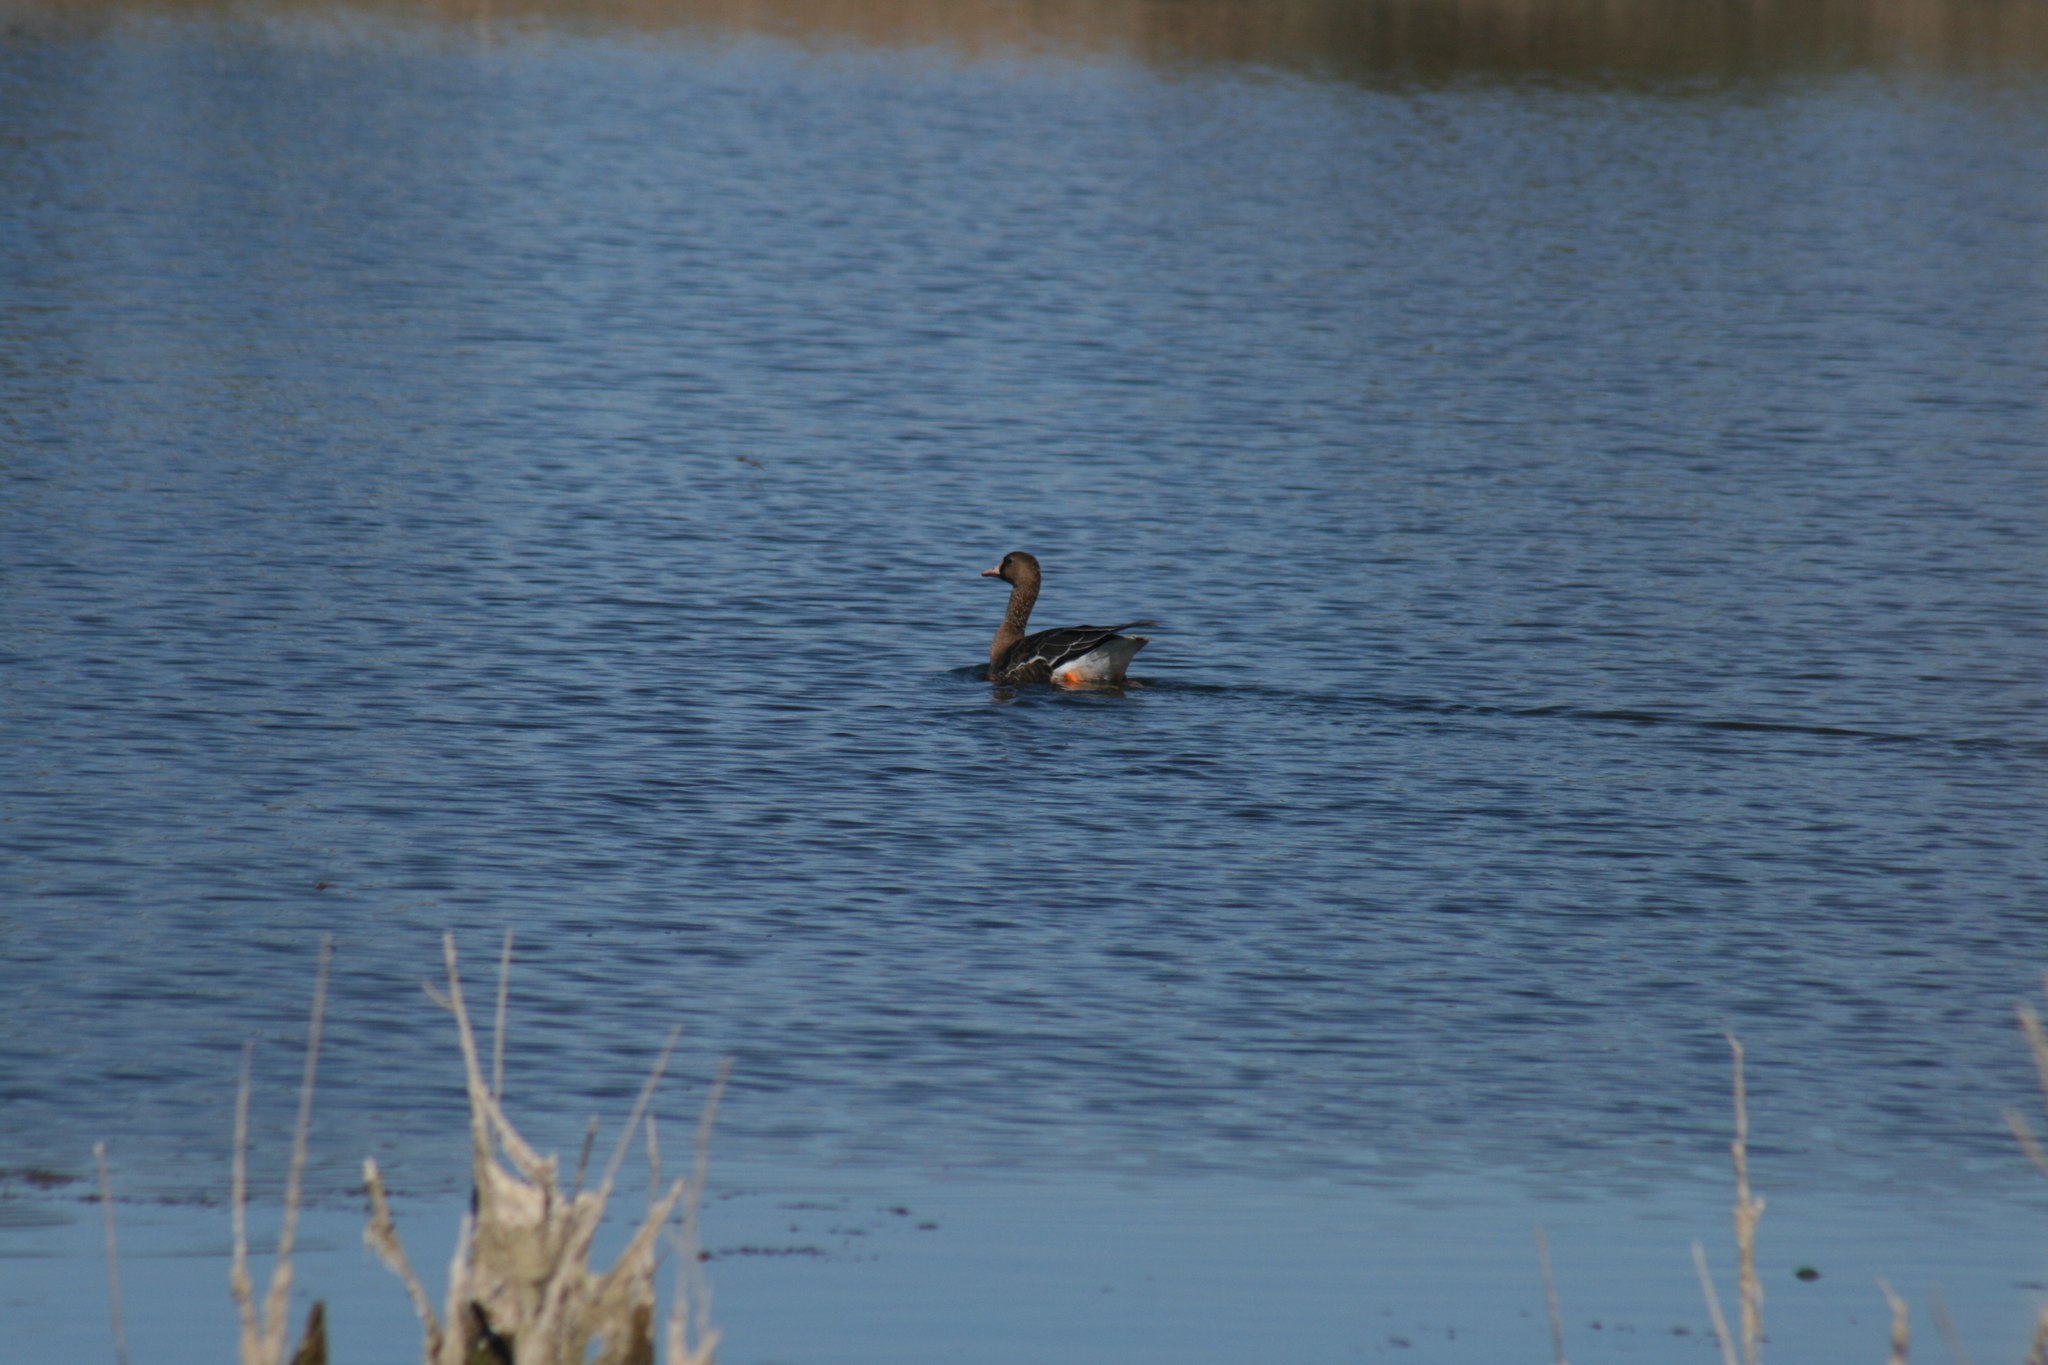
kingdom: Animalia
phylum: Chordata
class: Aves
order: Anseriformes
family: Anatidae
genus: Anser
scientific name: Anser albifrons
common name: Greater white-fronted goose
